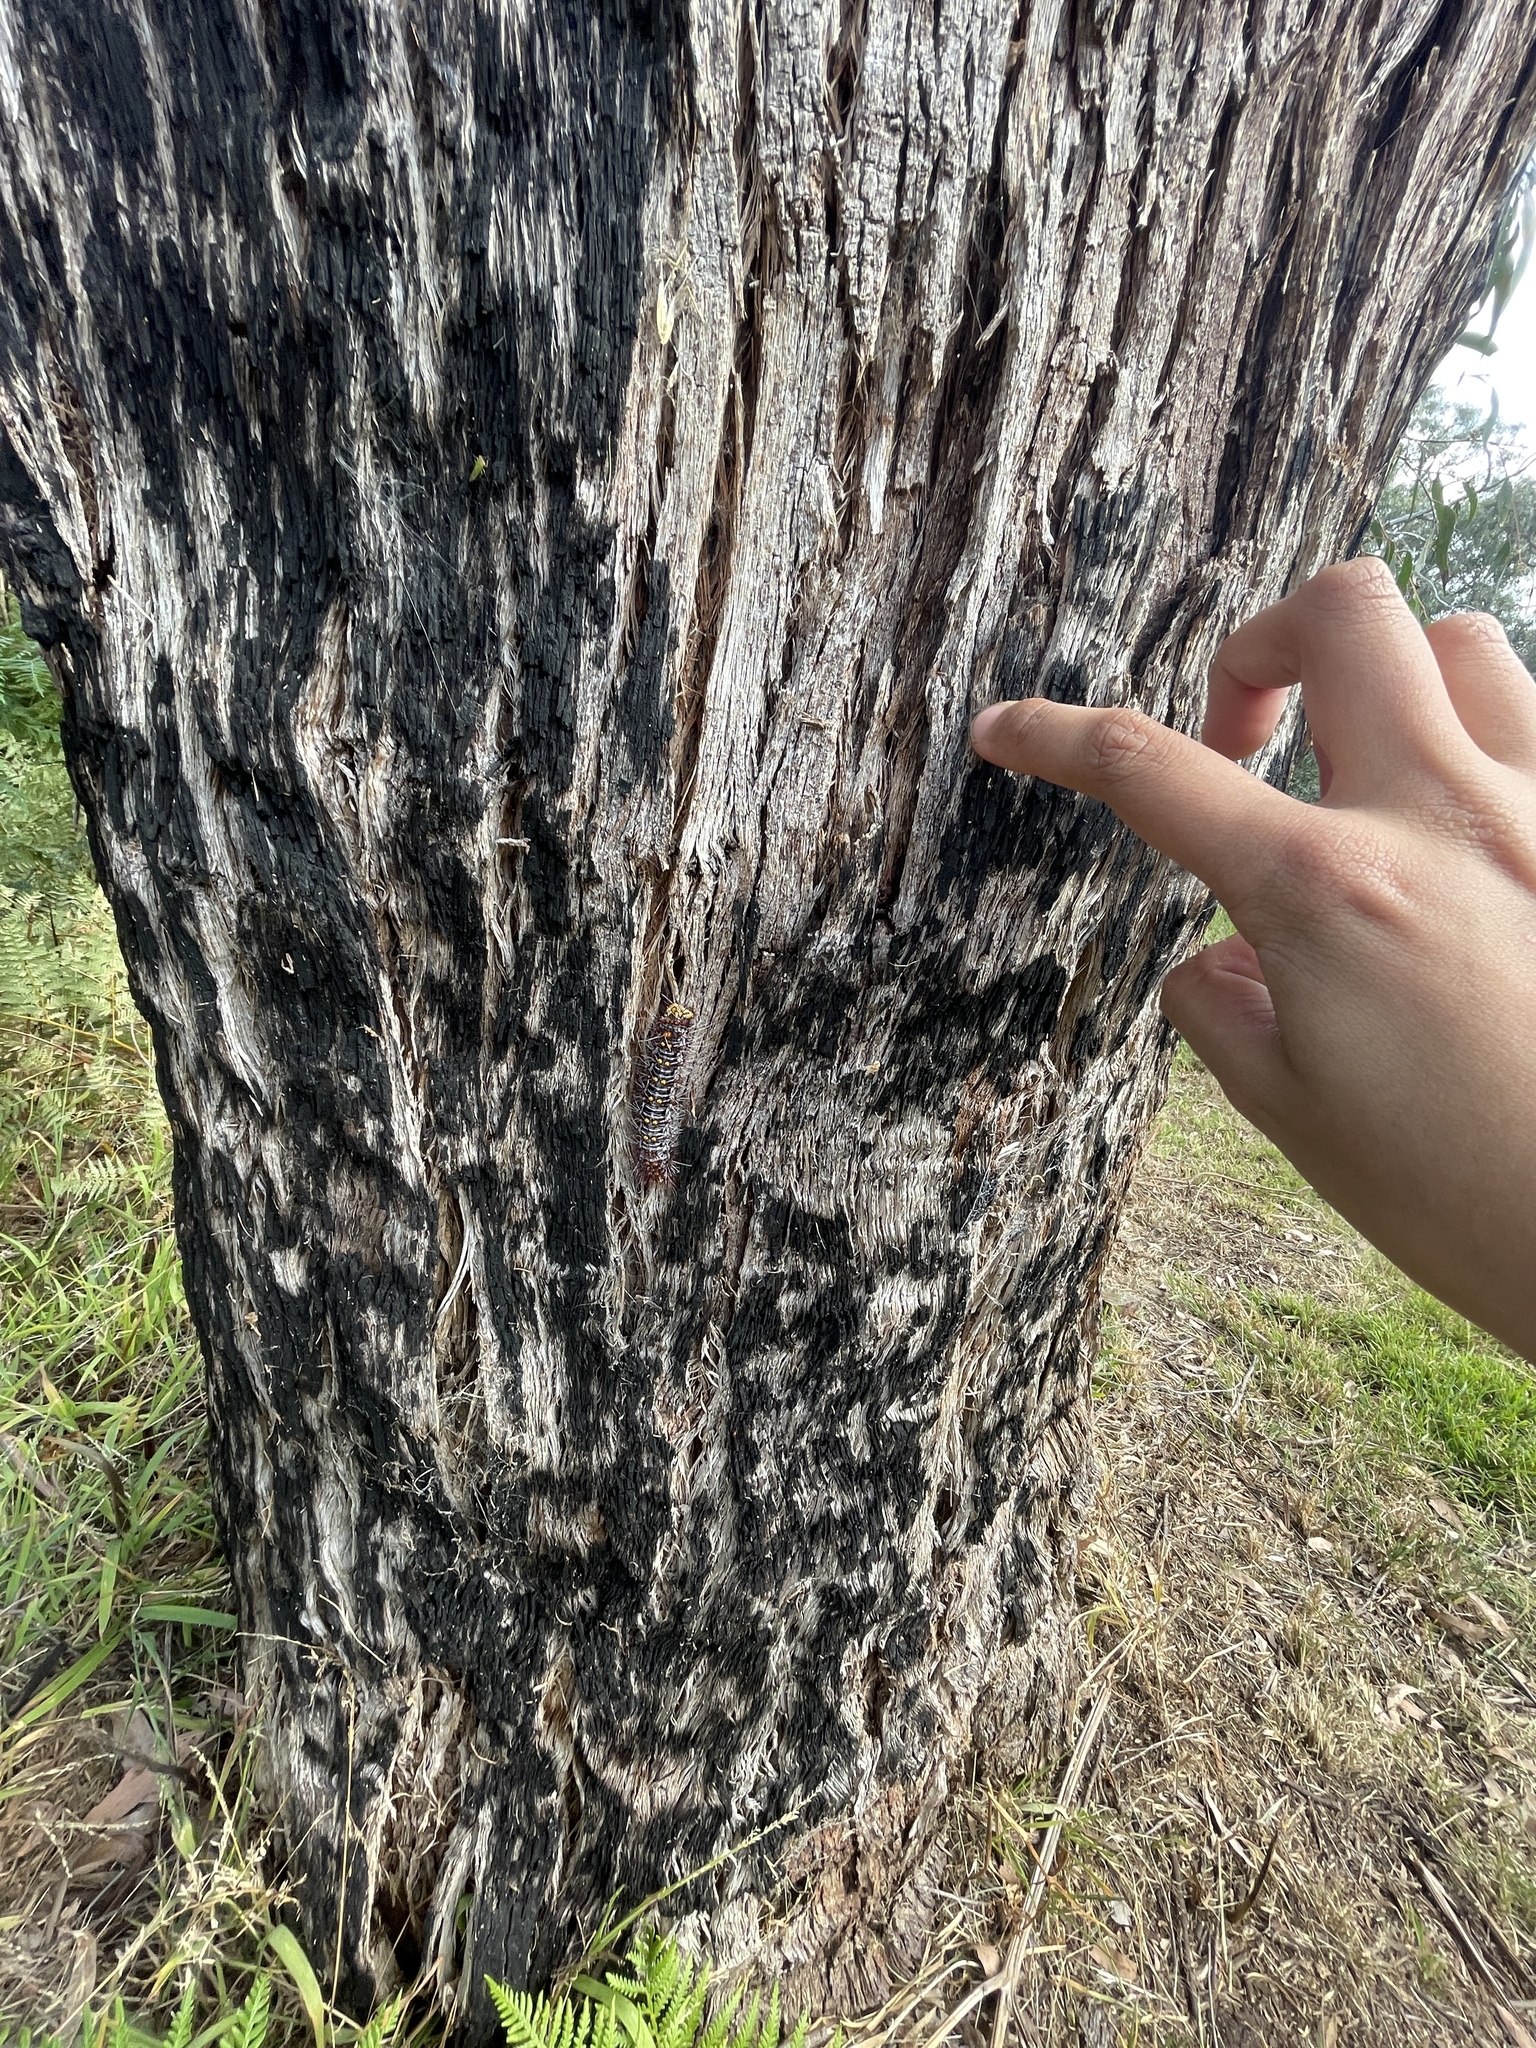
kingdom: Animalia
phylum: Arthropoda
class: Insecta
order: Lepidoptera
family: Anthelidae
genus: Chelepteryx
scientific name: Chelepteryx collesi
